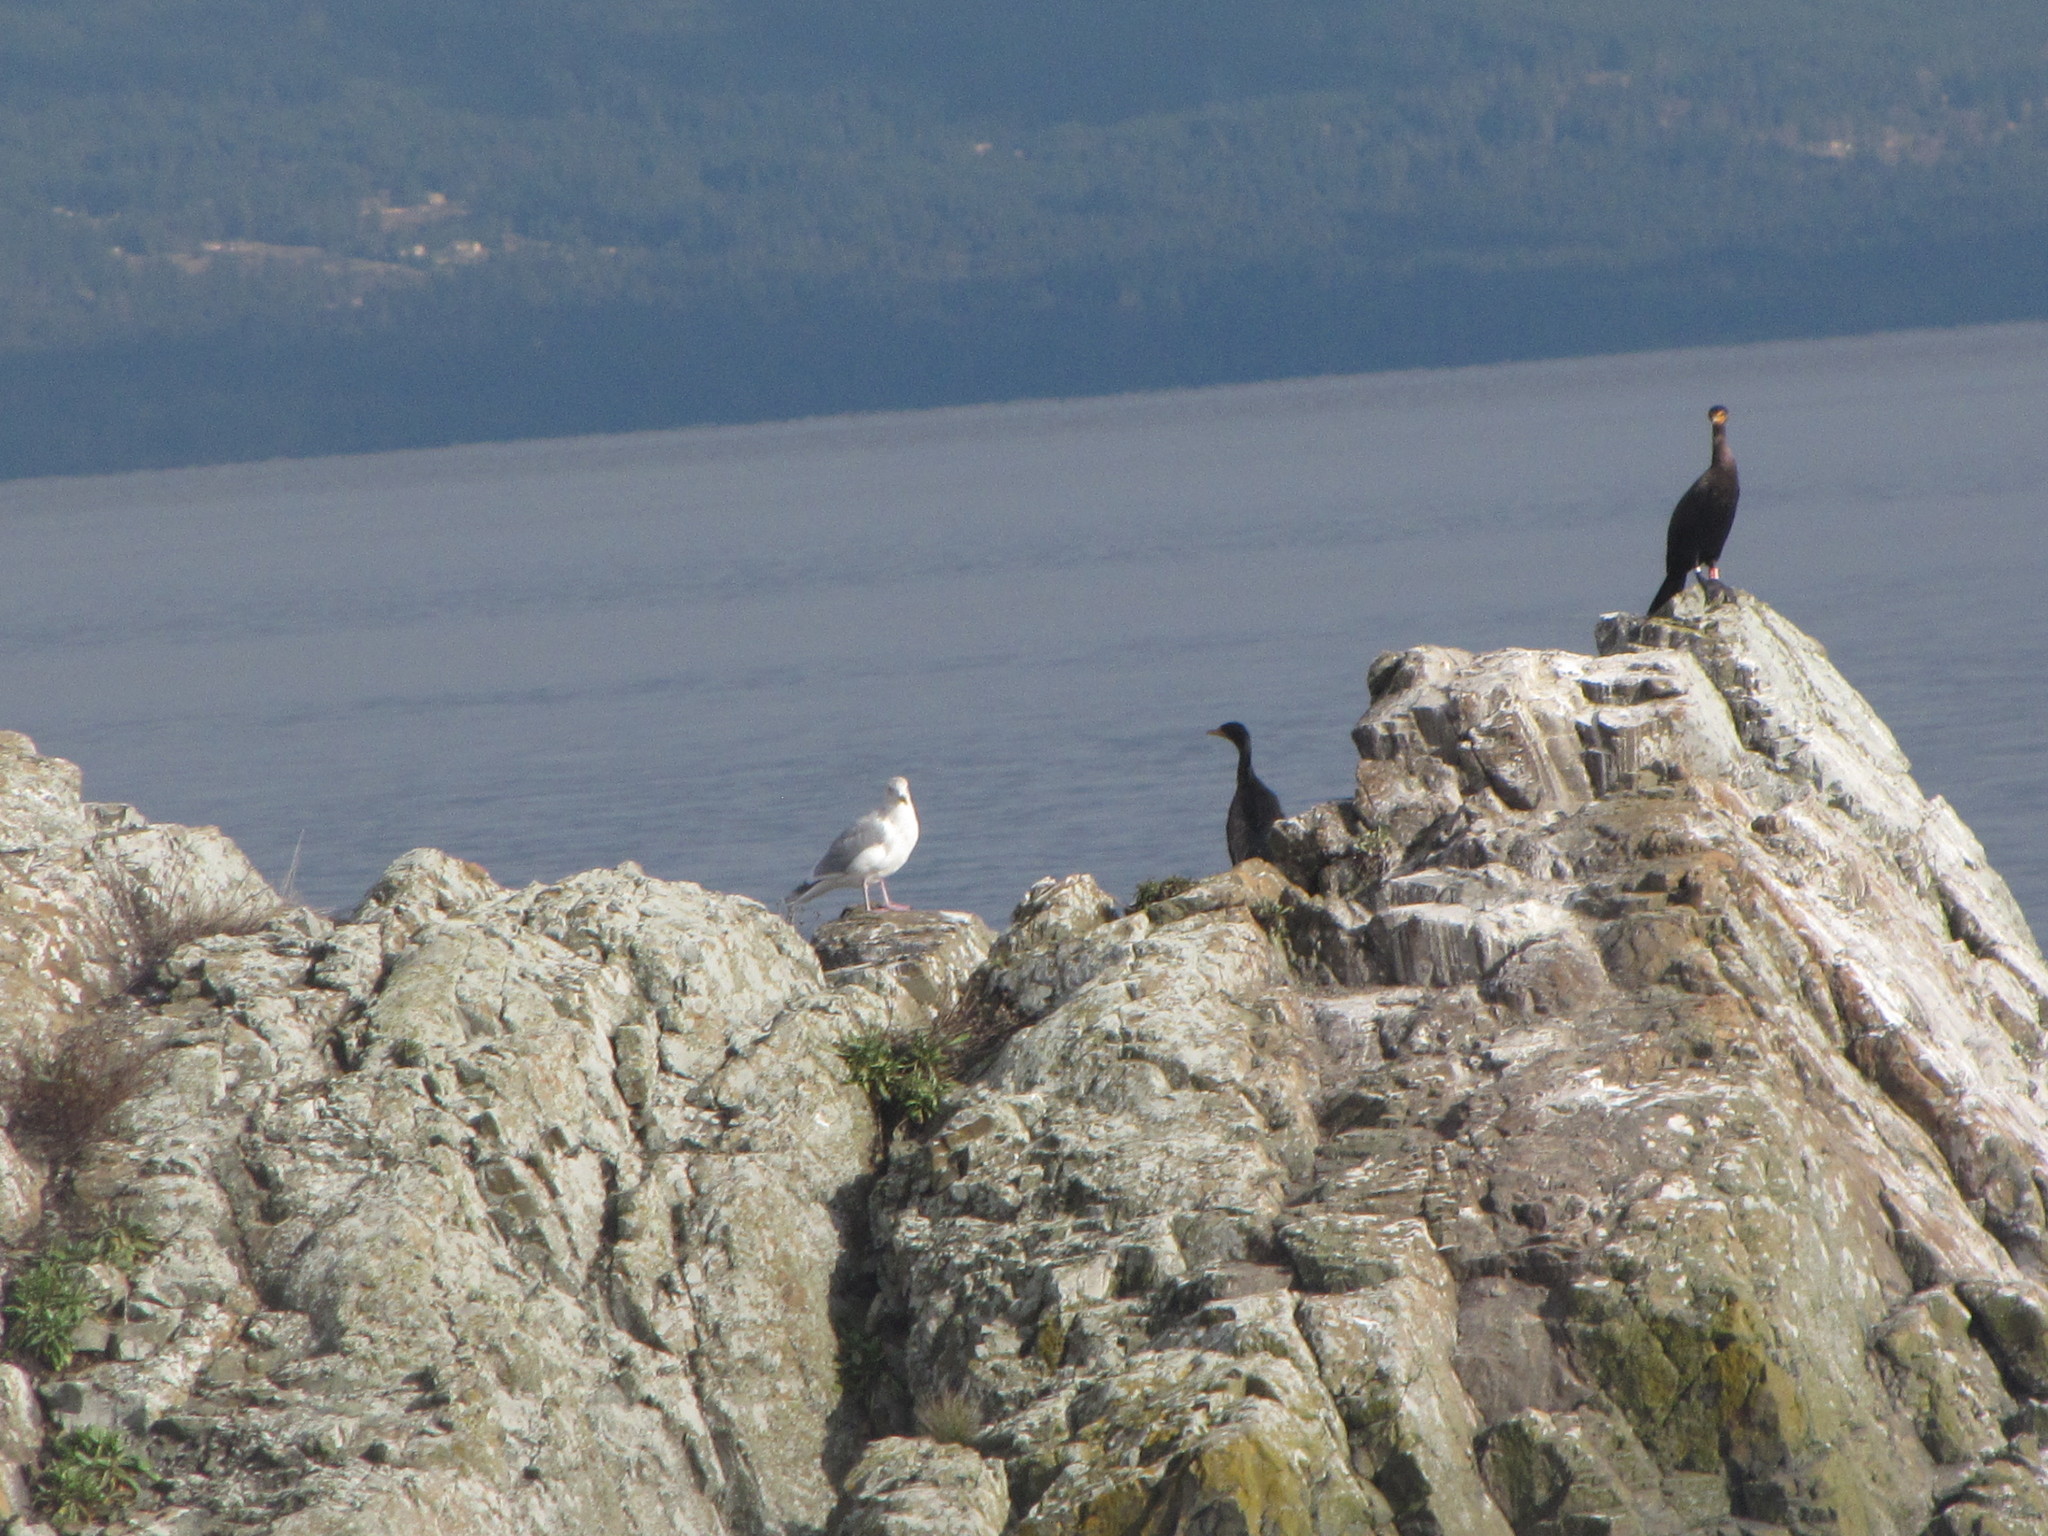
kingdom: Animalia
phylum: Chordata
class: Aves
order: Suliformes
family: Phalacrocoracidae
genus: Phalacrocorax
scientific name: Phalacrocorax auritus
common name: Double-crested cormorant
